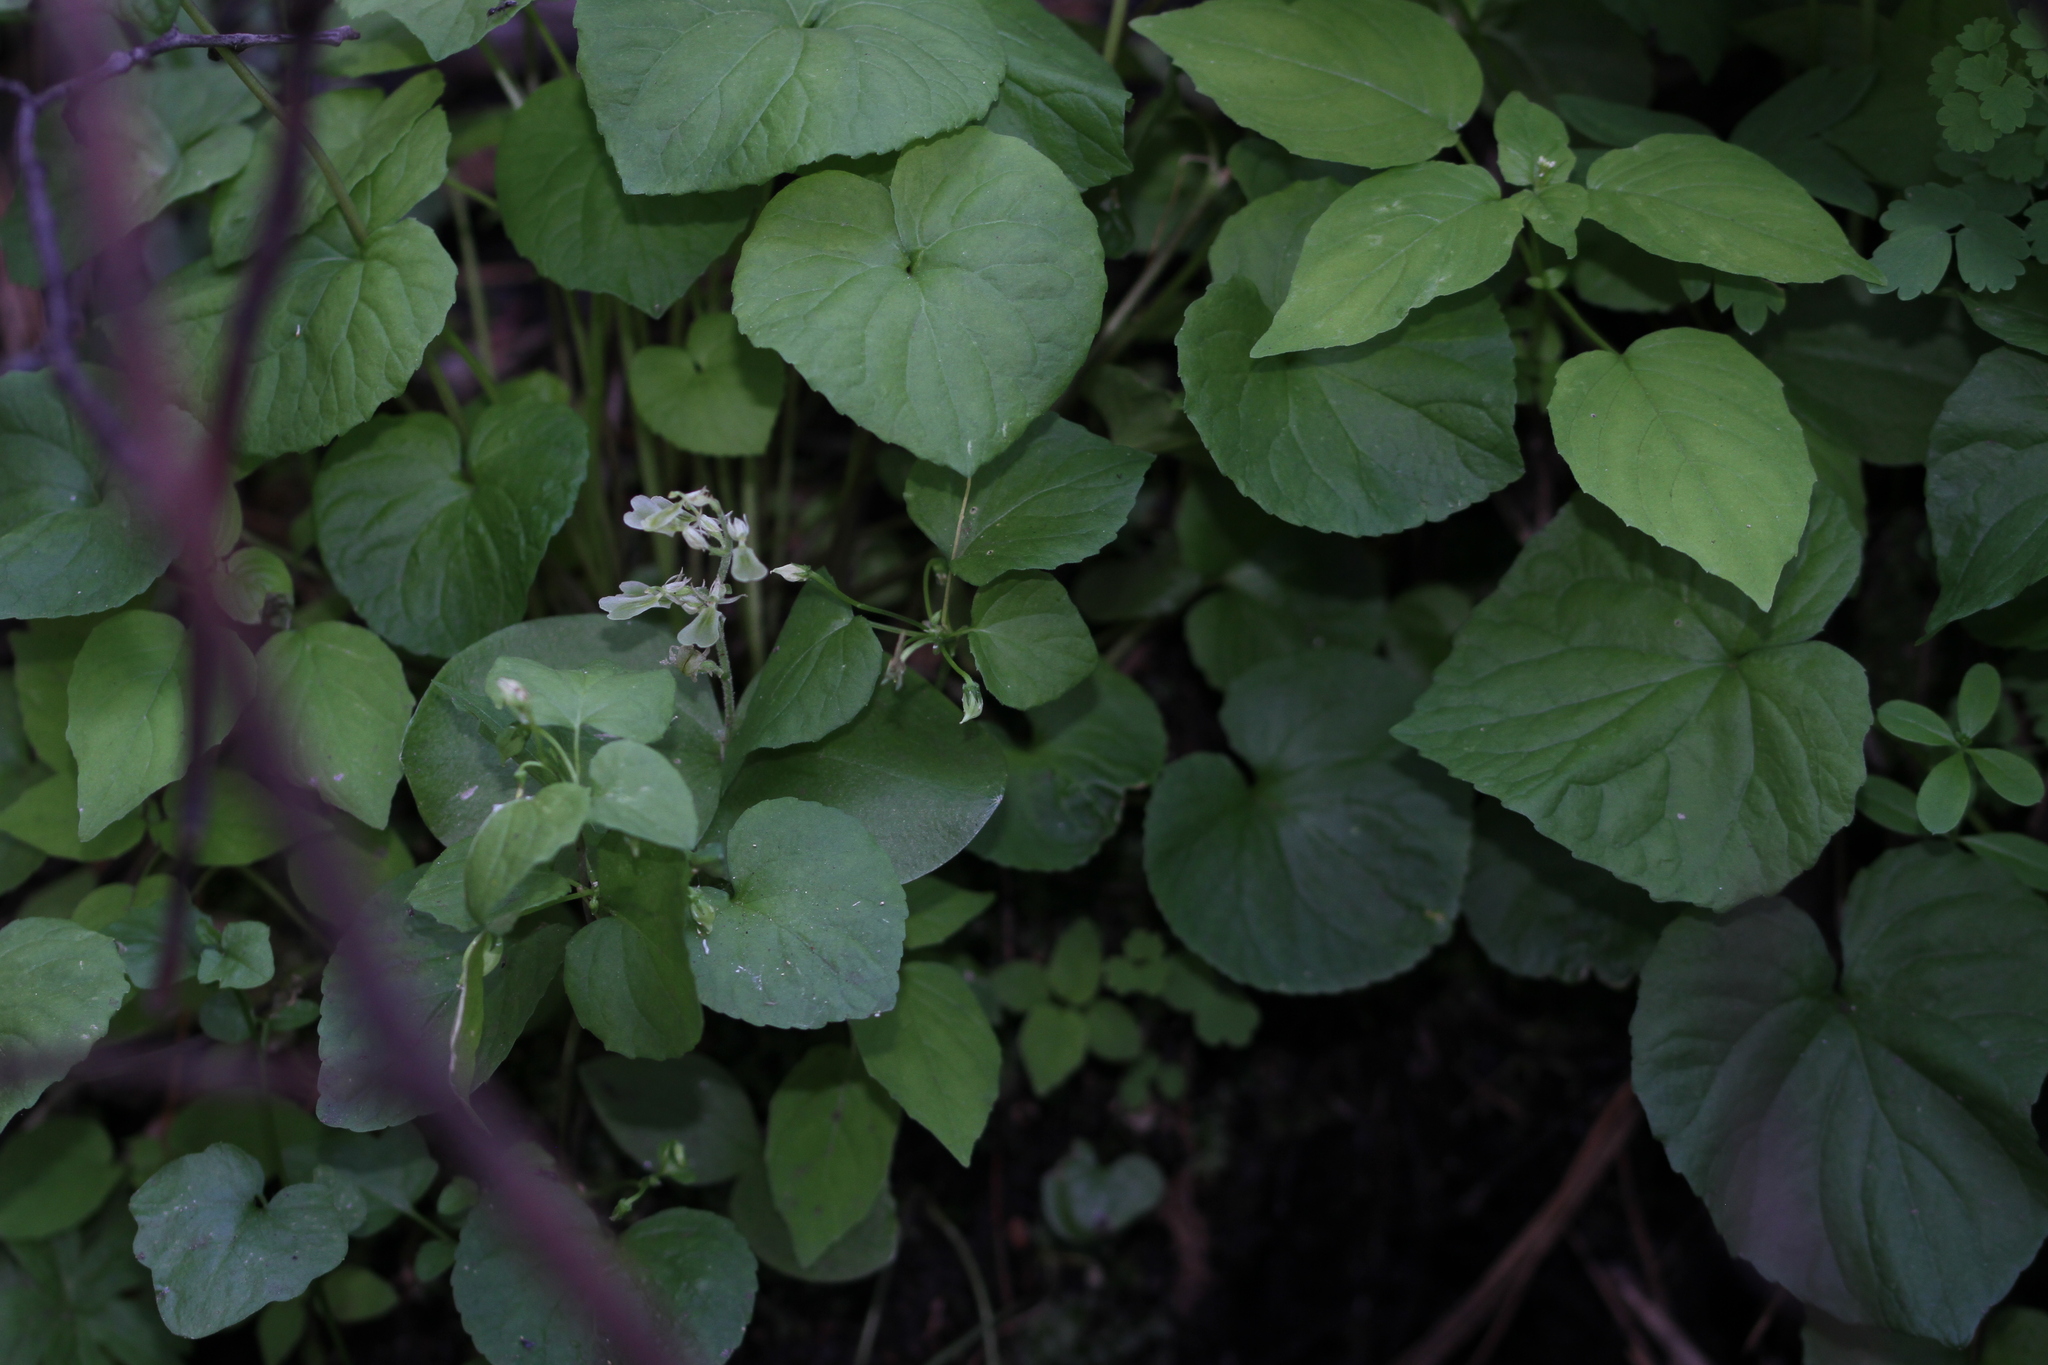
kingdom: Plantae
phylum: Tracheophyta
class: Liliopsida
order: Asparagales
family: Orchidaceae
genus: Neottia
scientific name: Neottia convallarioides
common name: Broadleaf twayblade
